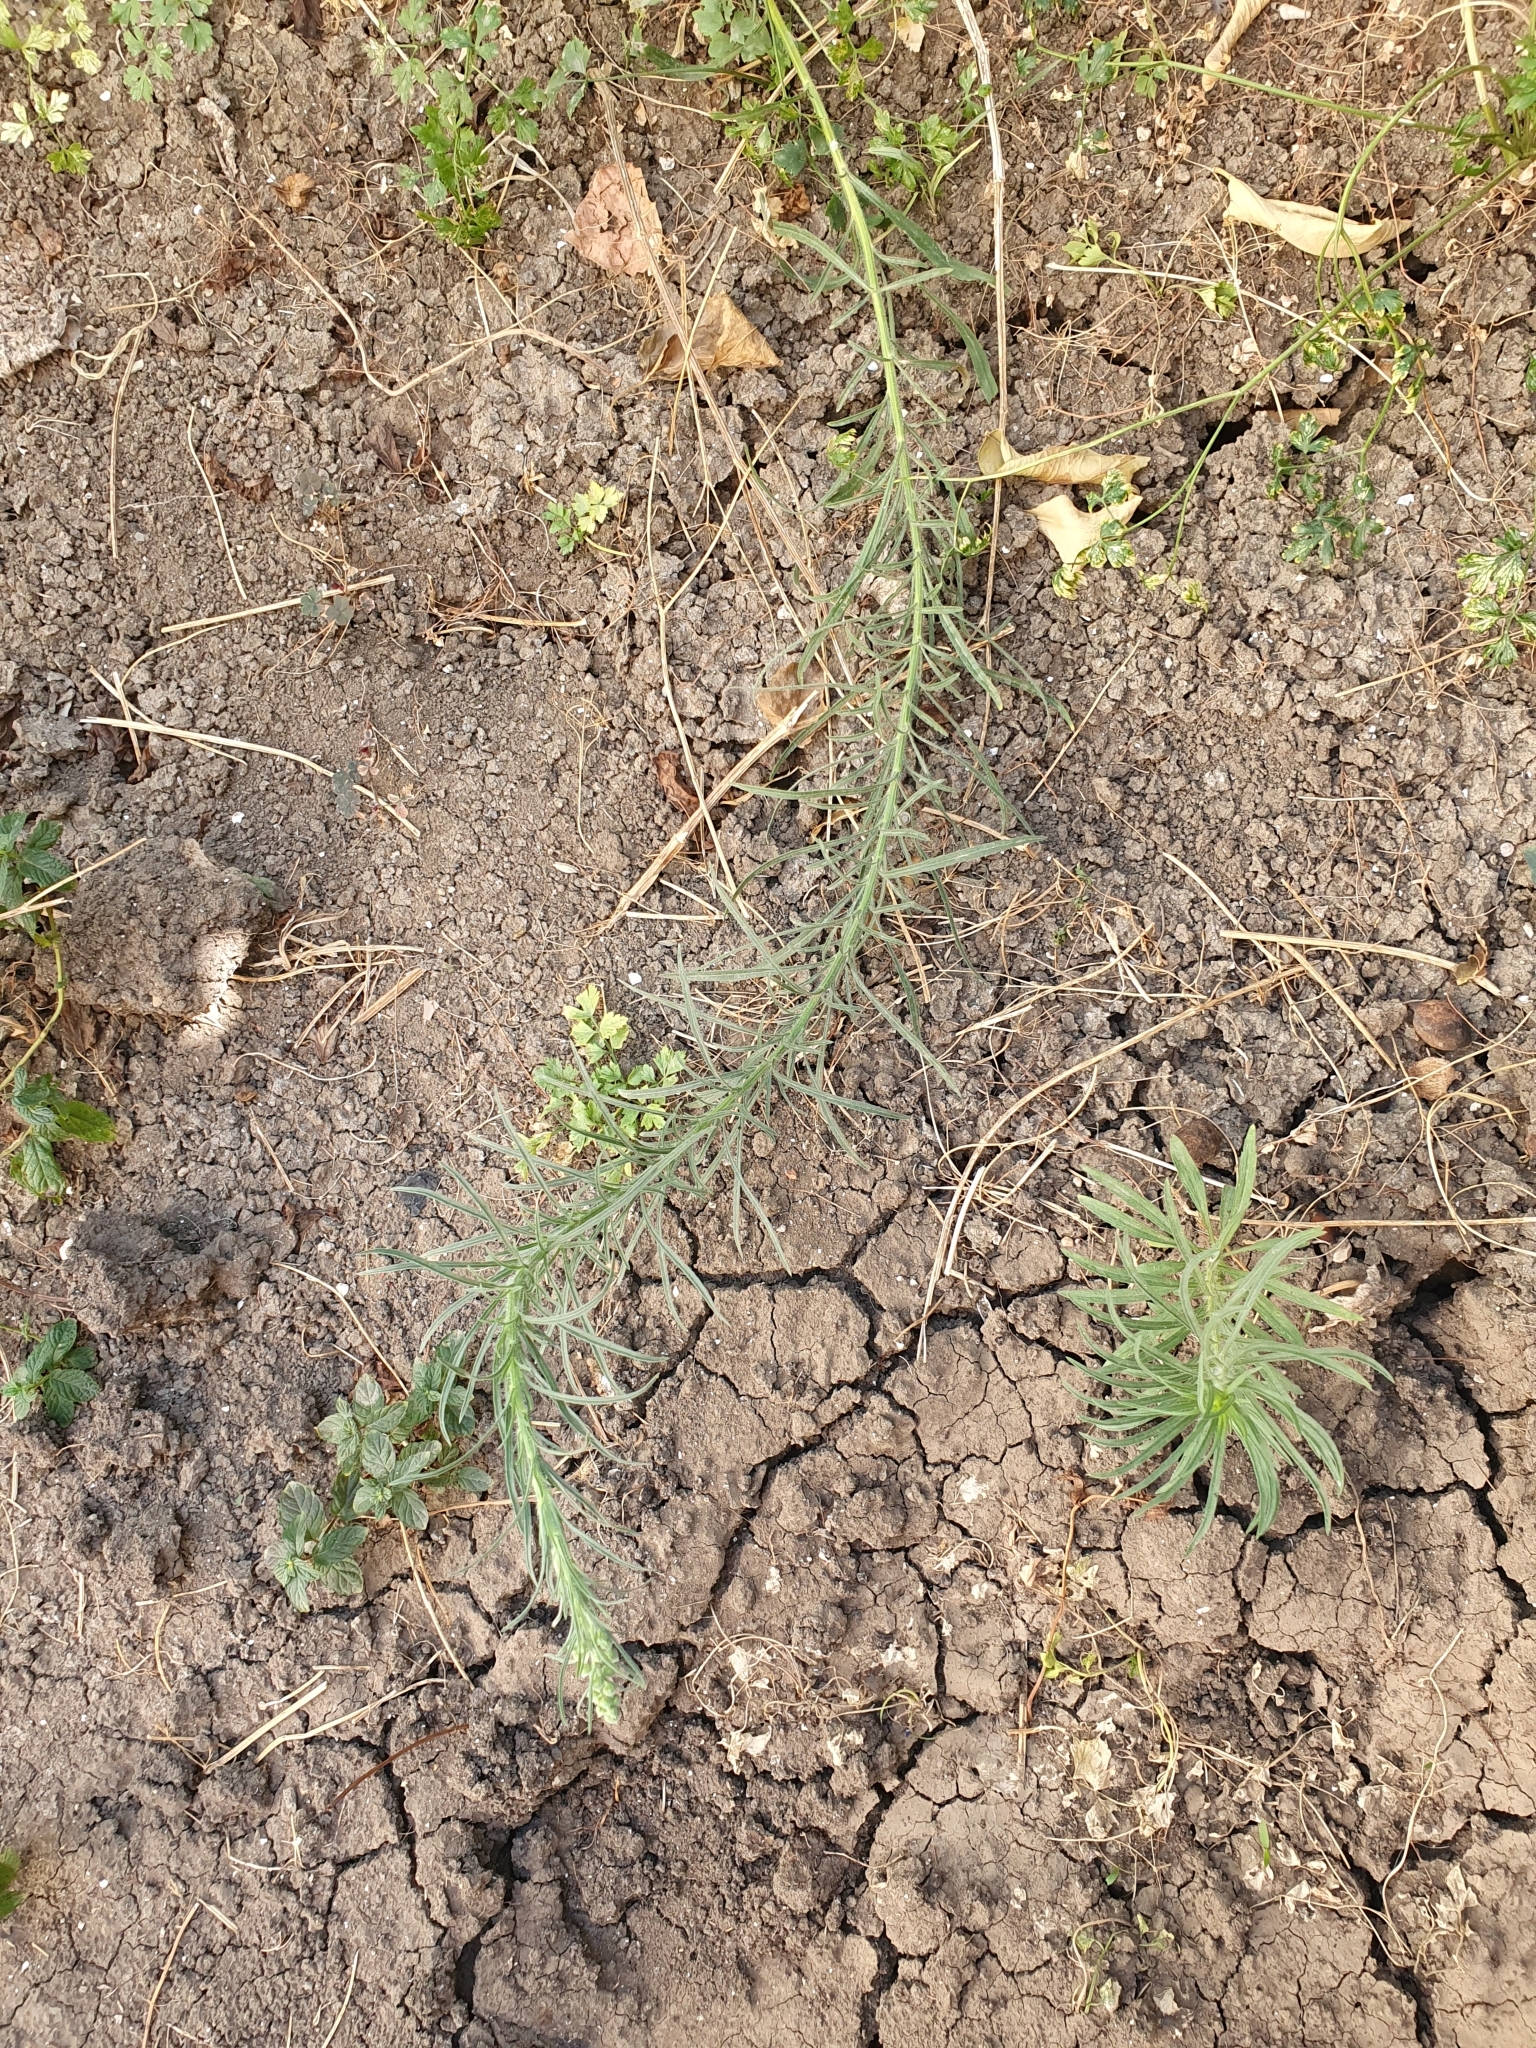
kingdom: Plantae
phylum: Tracheophyta
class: Magnoliopsida
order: Asterales
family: Asteraceae
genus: Erigeron
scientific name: Erigeron bonariensis
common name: Argentine fleabane
